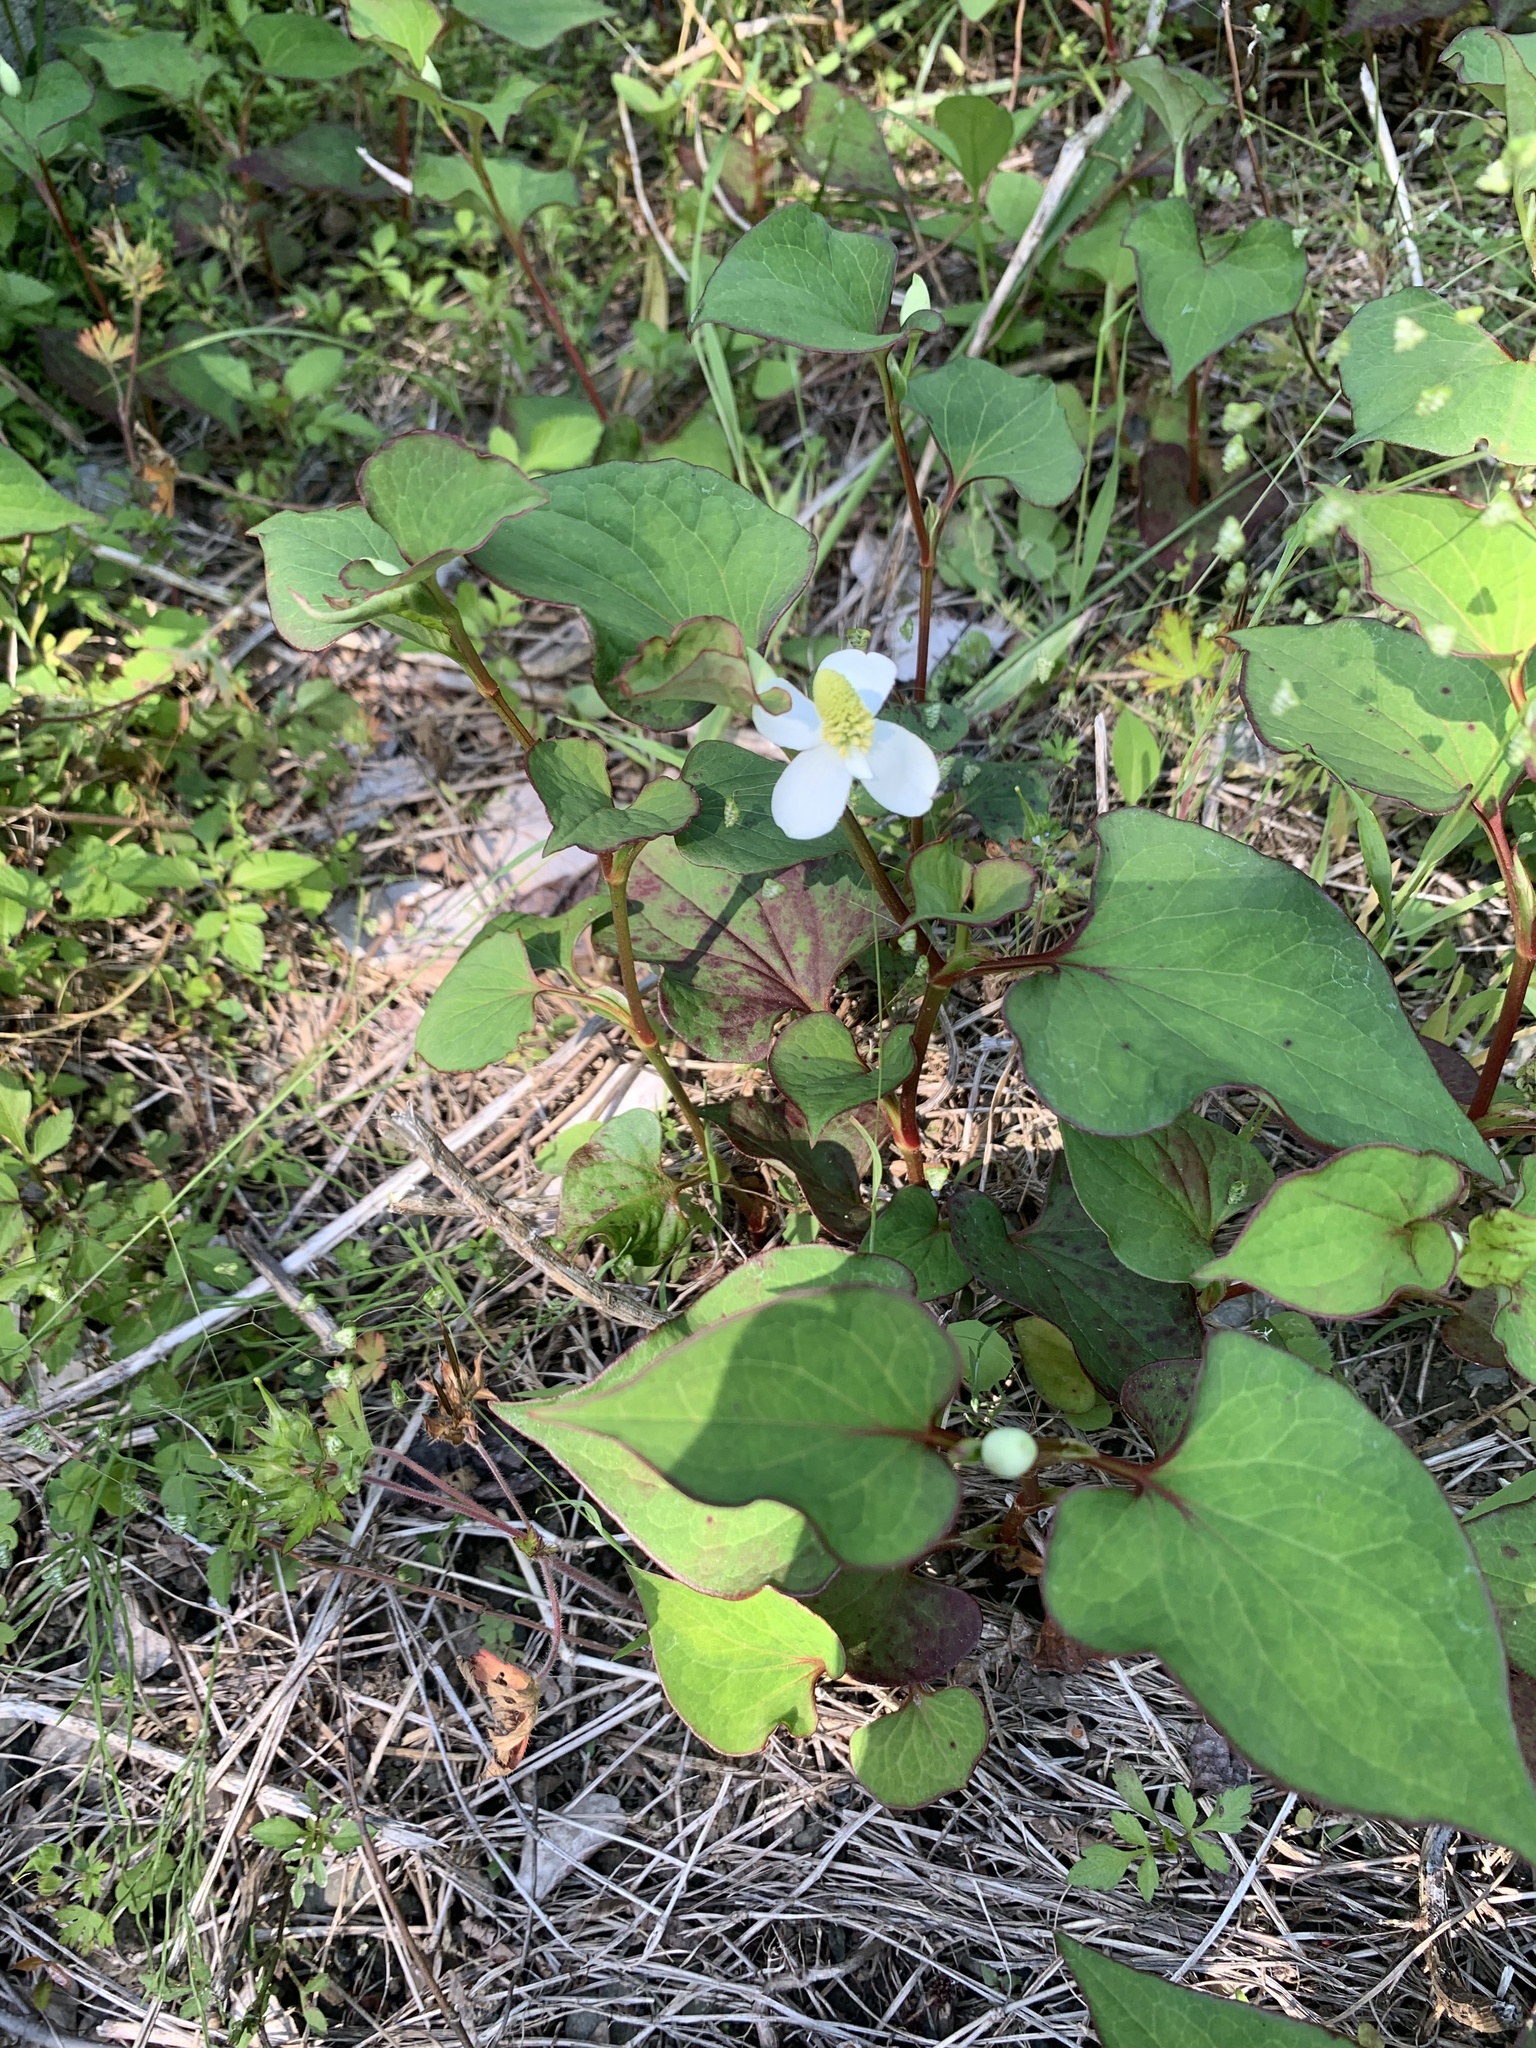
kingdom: Plantae
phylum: Tracheophyta
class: Magnoliopsida
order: Piperales
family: Saururaceae
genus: Houttuynia
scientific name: Houttuynia cordata
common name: Chameleon
